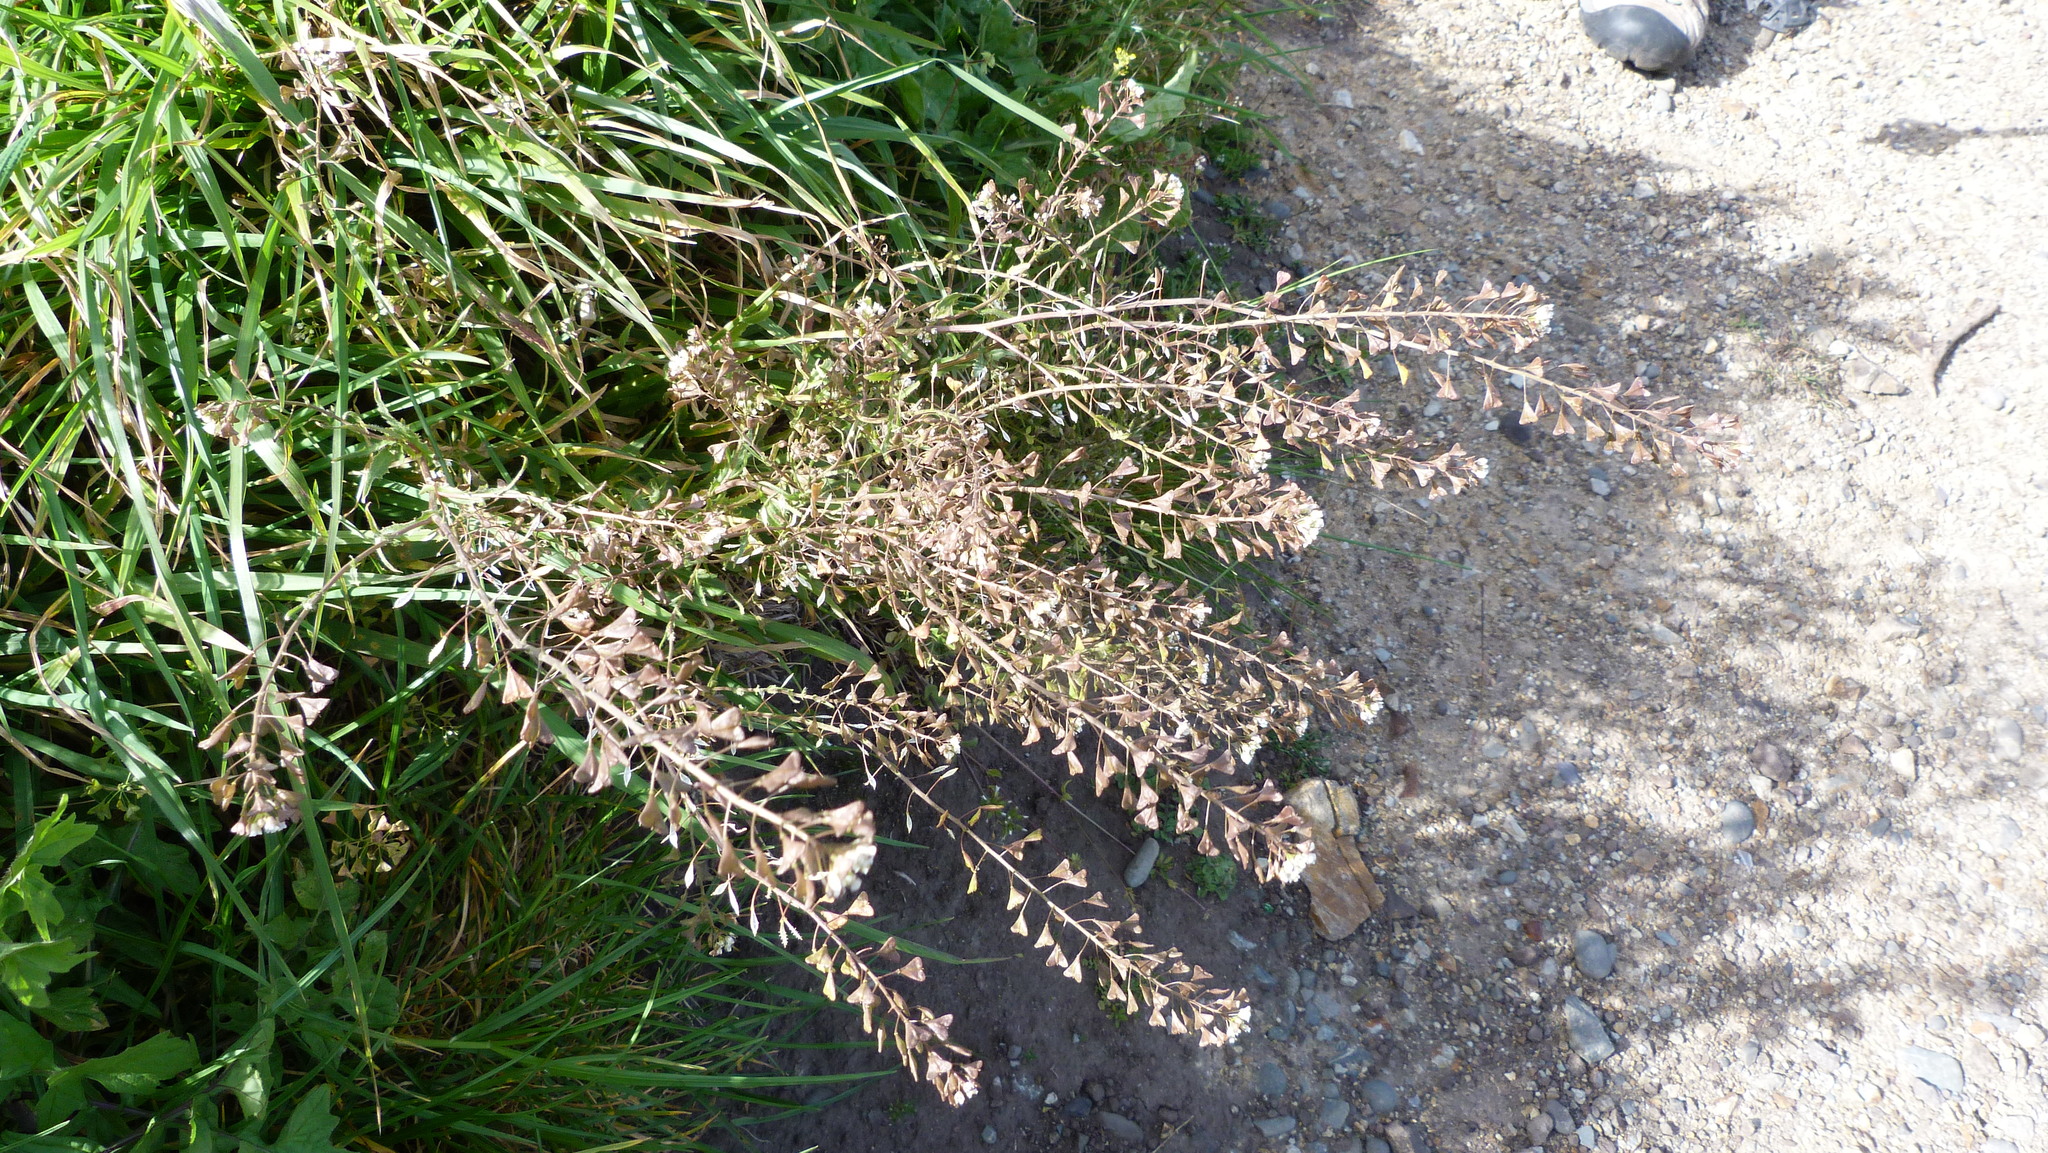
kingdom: Plantae
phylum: Tracheophyta
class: Magnoliopsida
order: Brassicales
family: Brassicaceae
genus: Capsella
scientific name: Capsella bursa-pastoris
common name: Shepherd's purse
